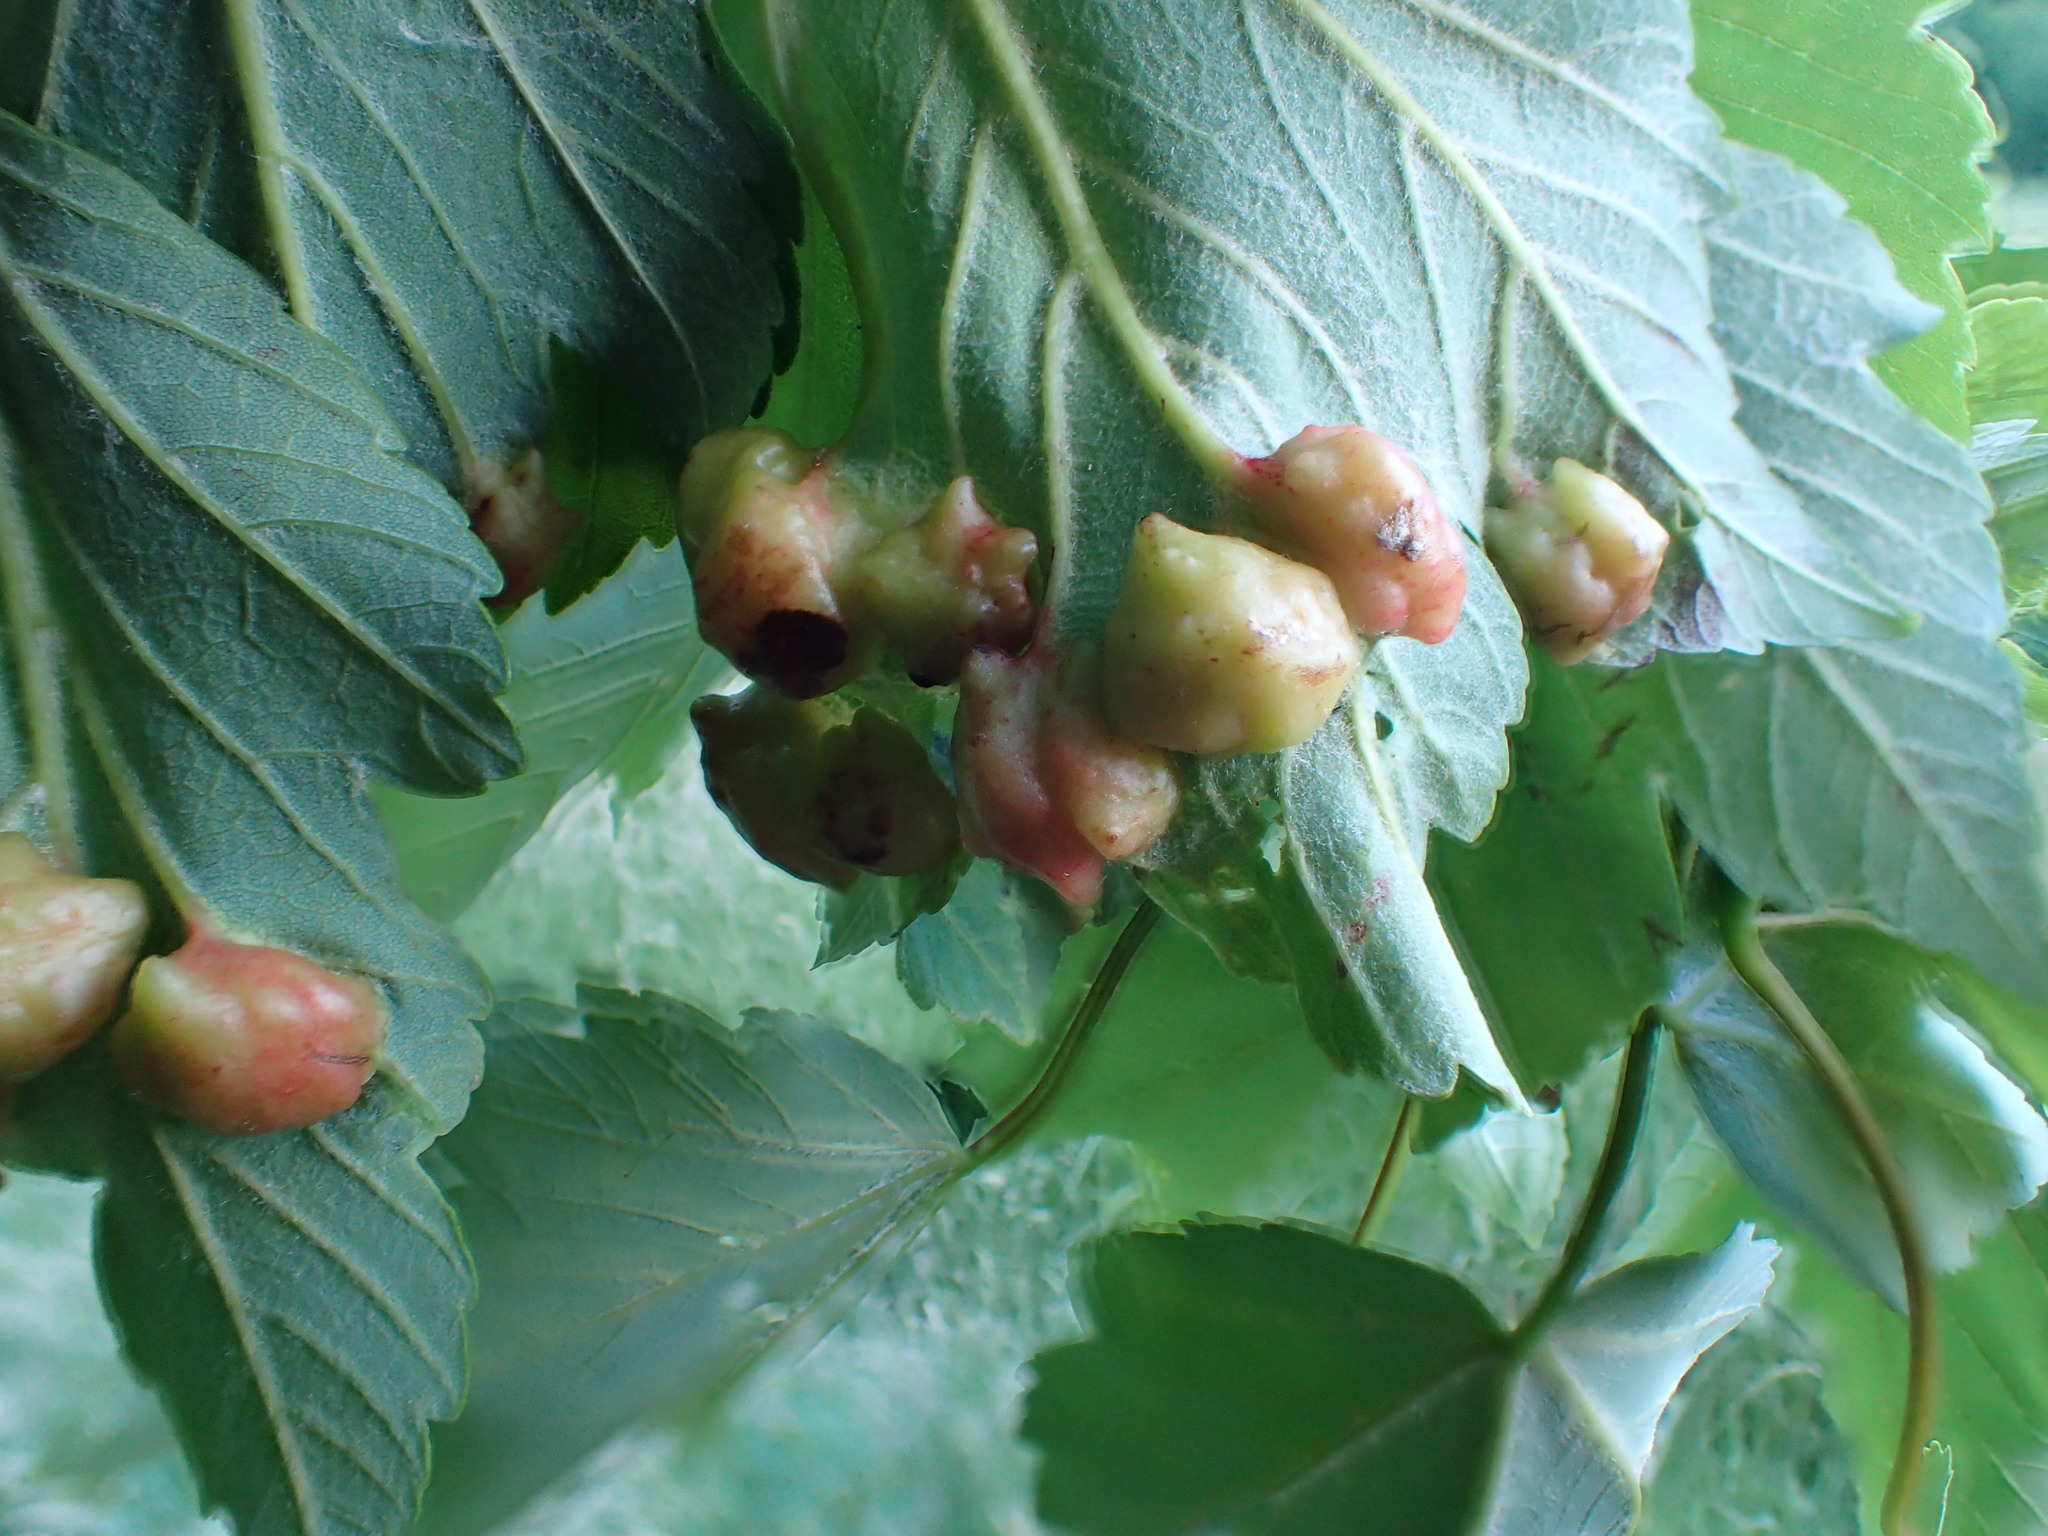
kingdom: Animalia
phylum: Arthropoda
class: Insecta
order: Hymenoptera
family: Eulophidae
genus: Dichatomus
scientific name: Dichatomus acerinus
